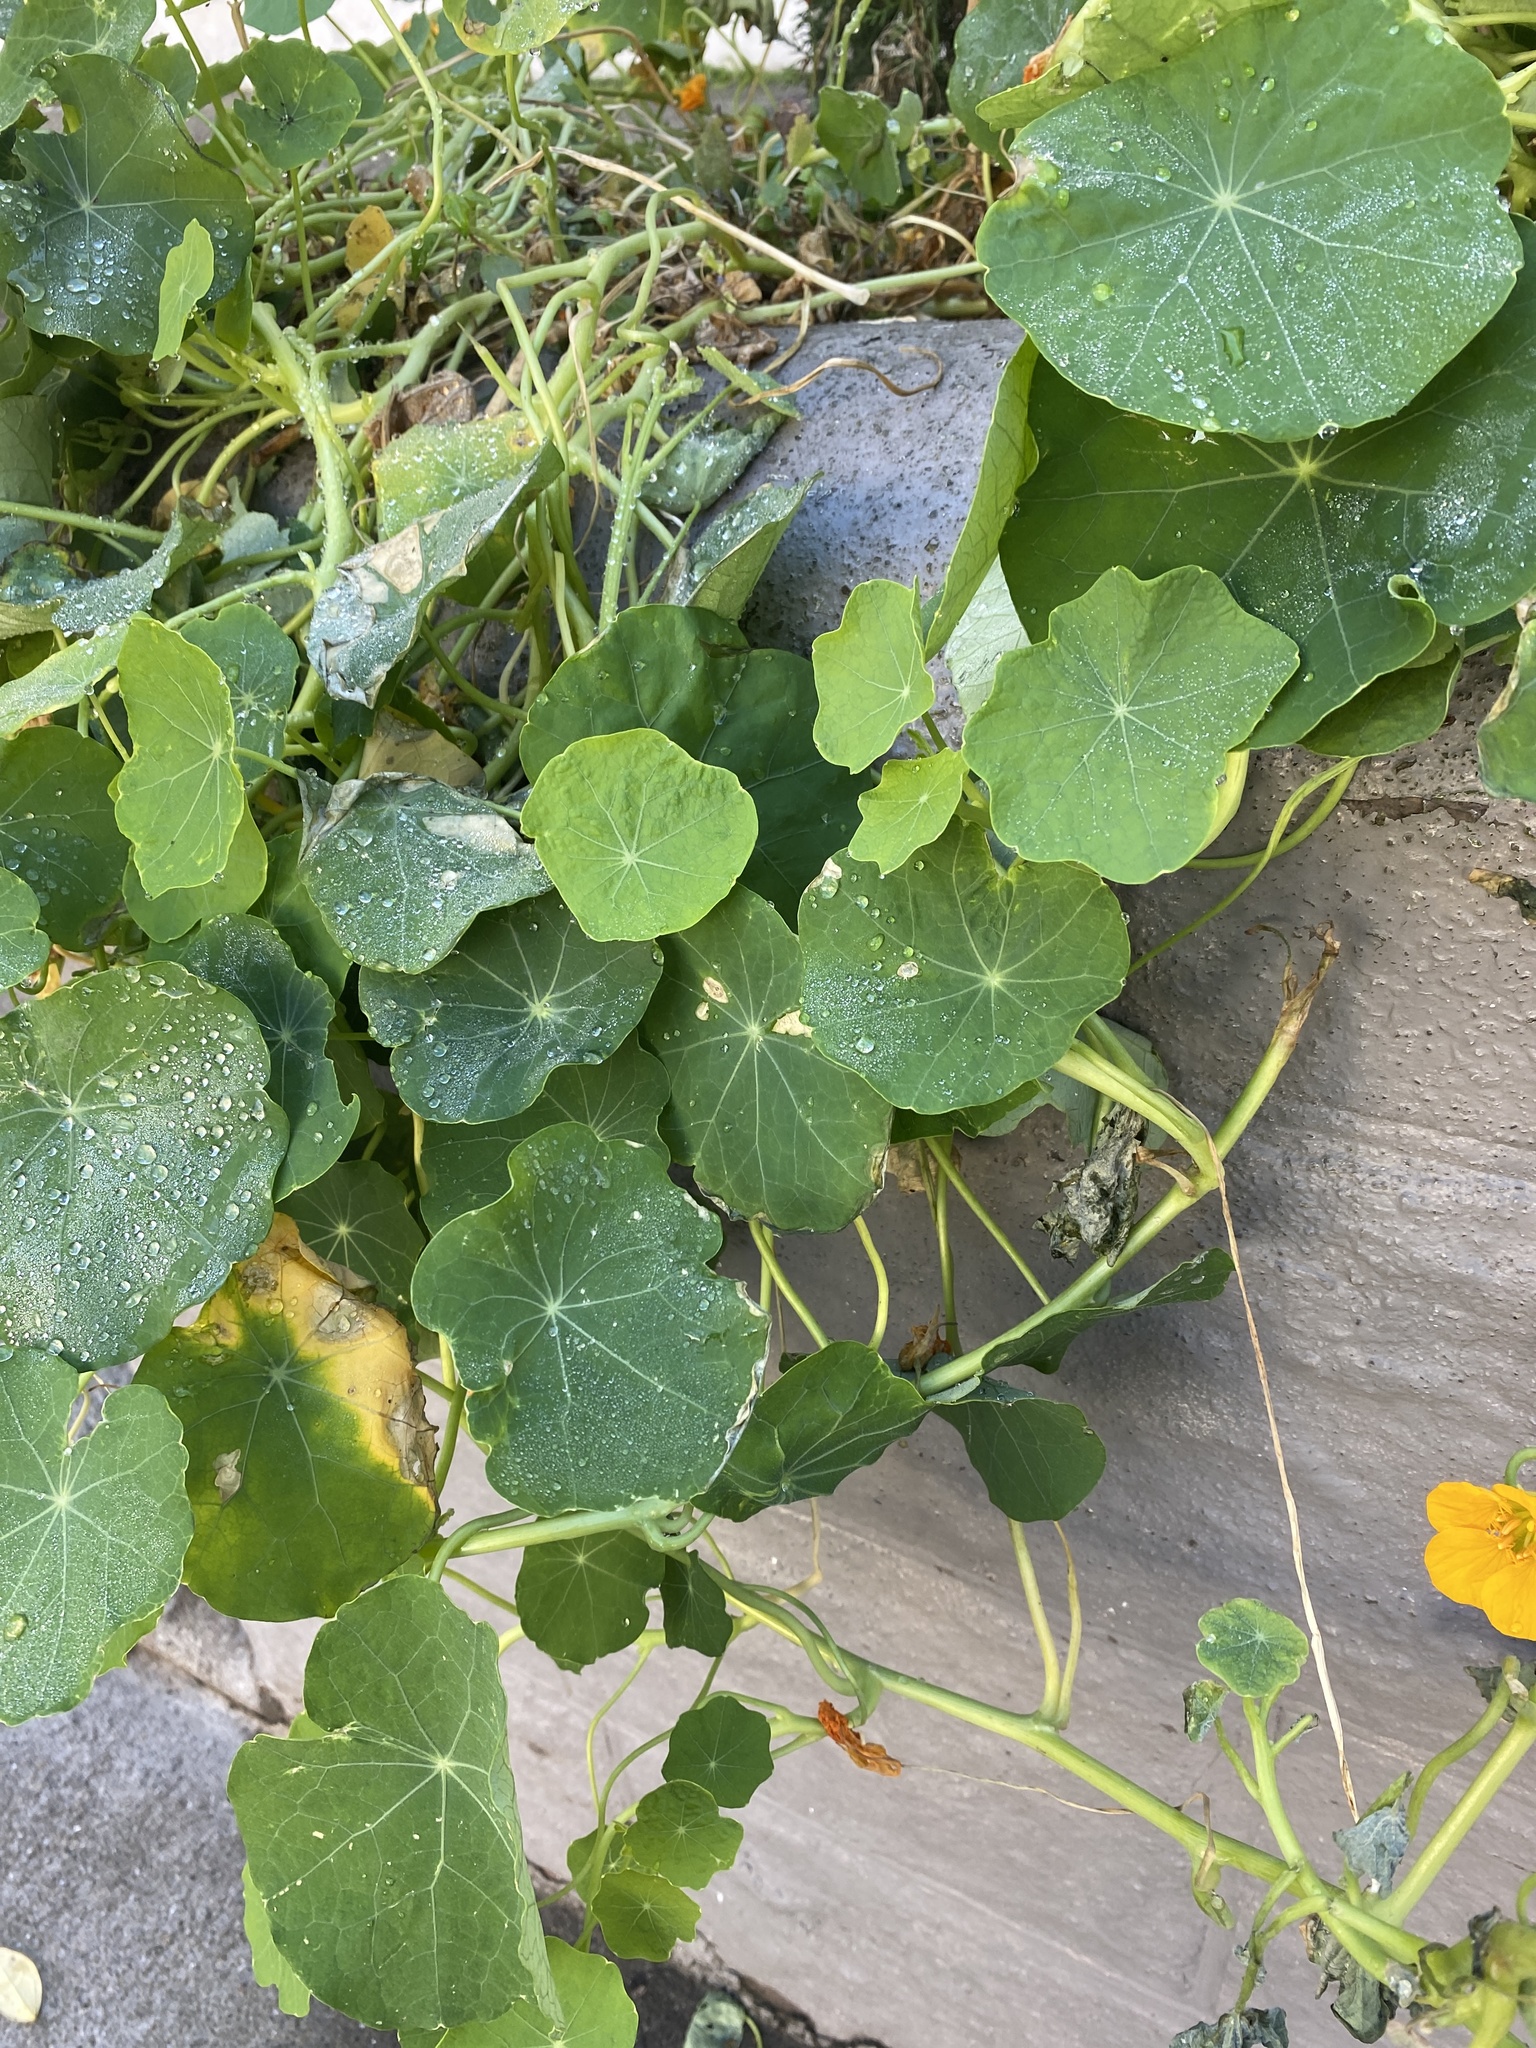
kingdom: Plantae
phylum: Tracheophyta
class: Magnoliopsida
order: Brassicales
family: Tropaeolaceae
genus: Tropaeolum
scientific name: Tropaeolum majus
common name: Nasturtium
